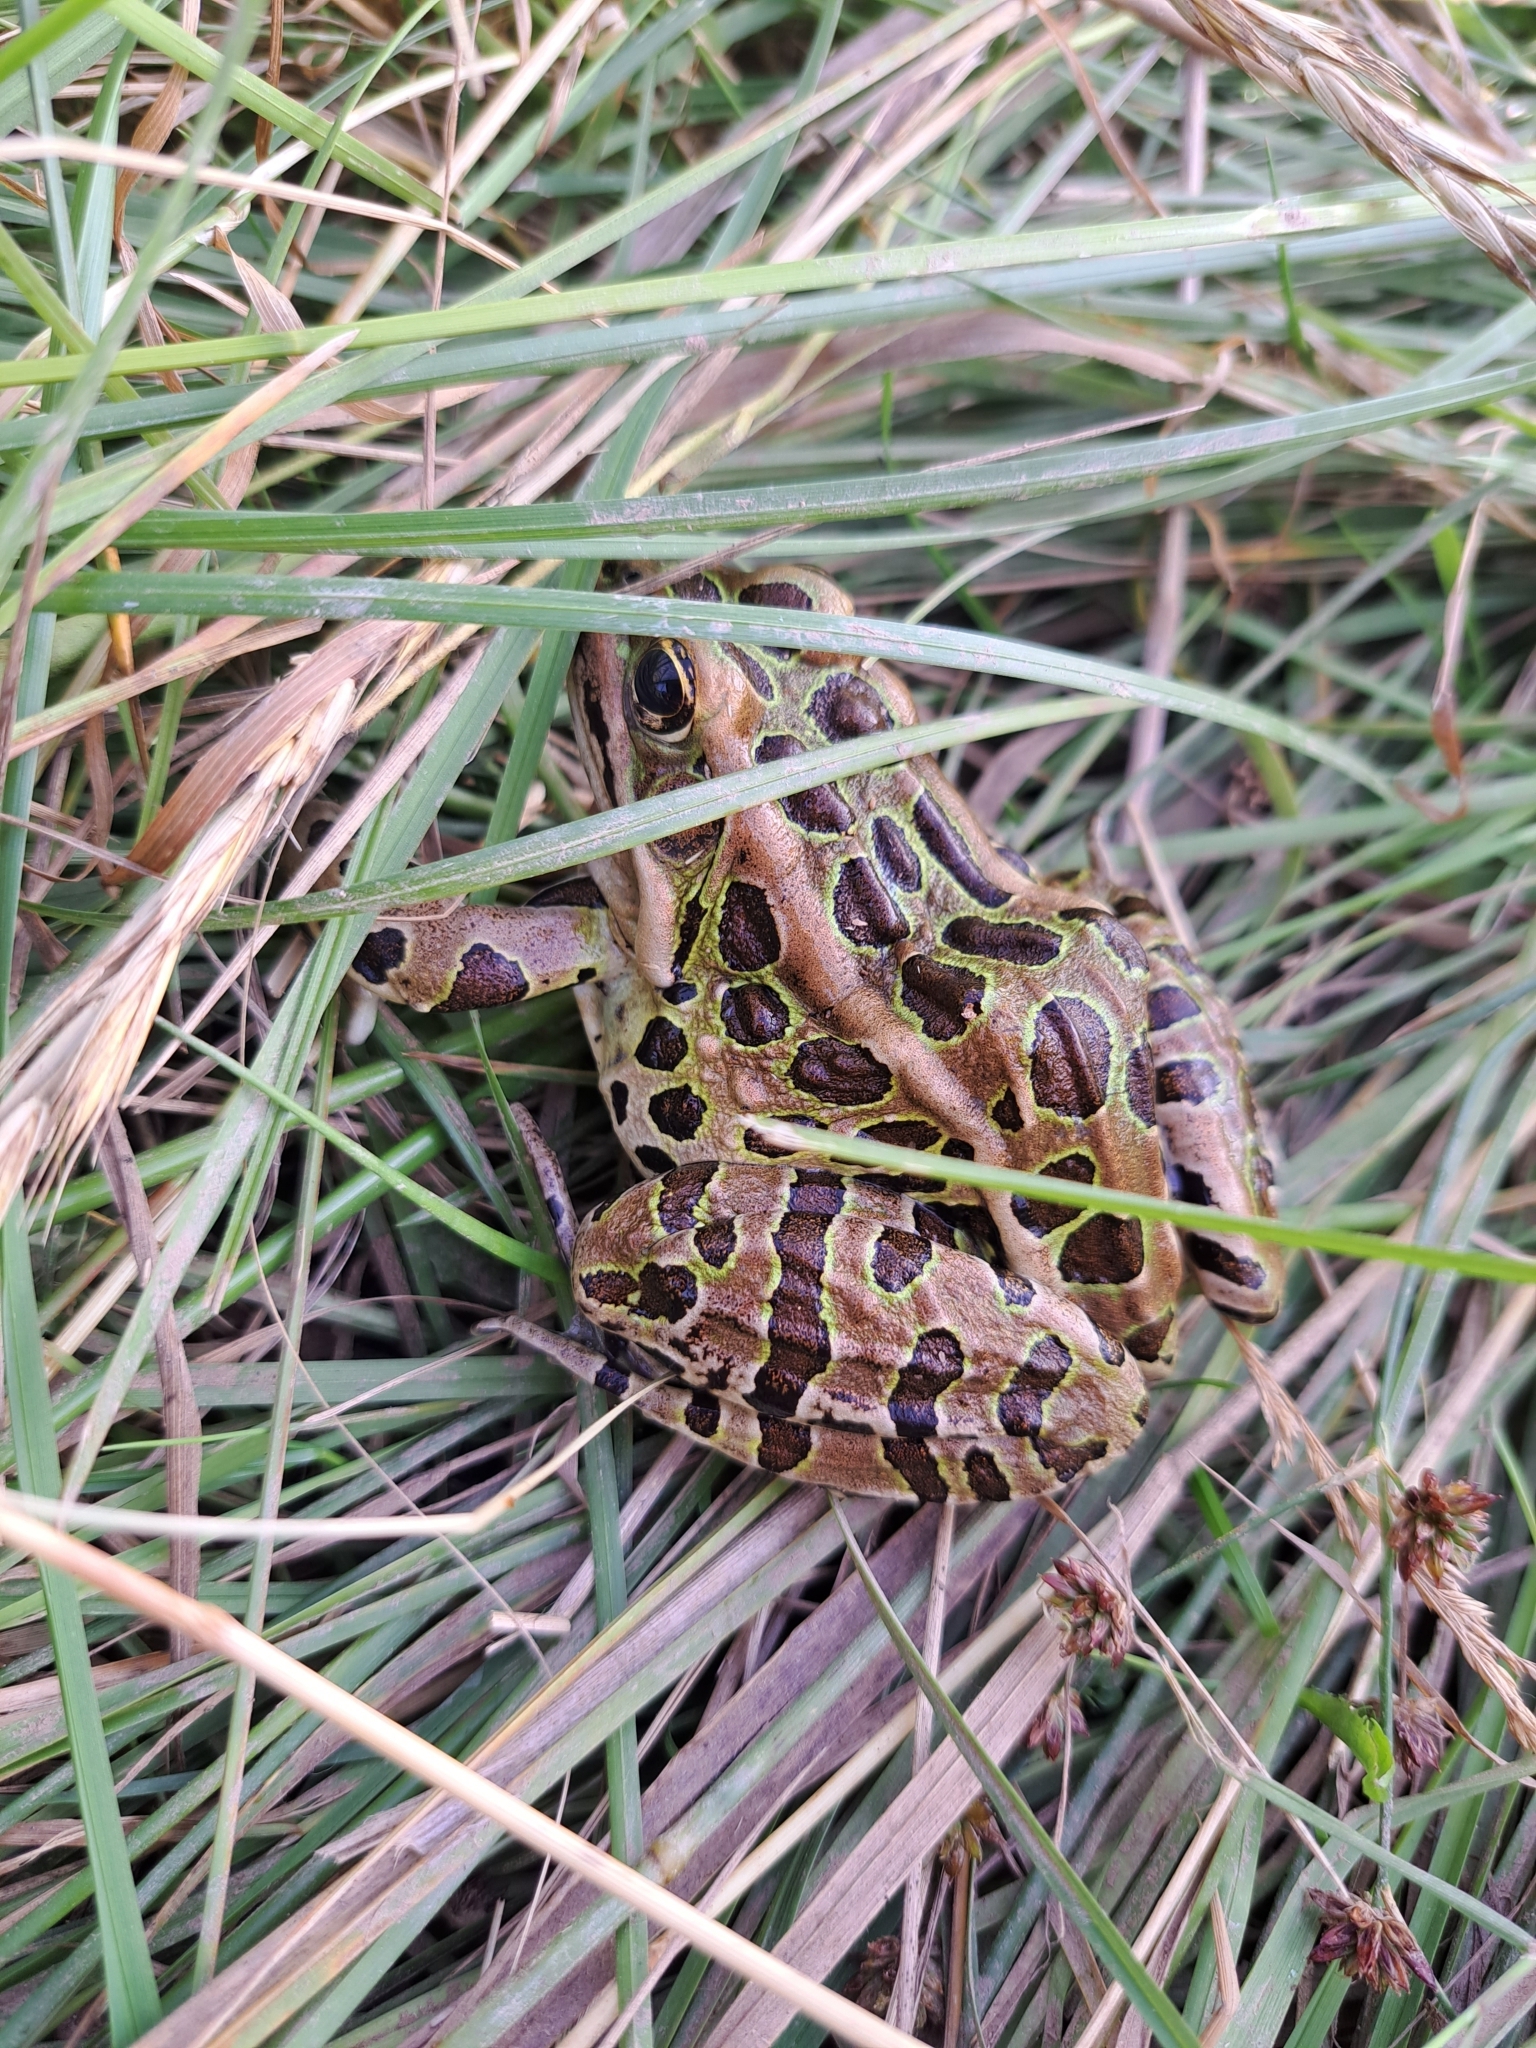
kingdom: Animalia
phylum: Chordata
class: Amphibia
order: Anura
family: Ranidae
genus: Lithobates
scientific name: Lithobates pipiens
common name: Northern leopard frog
